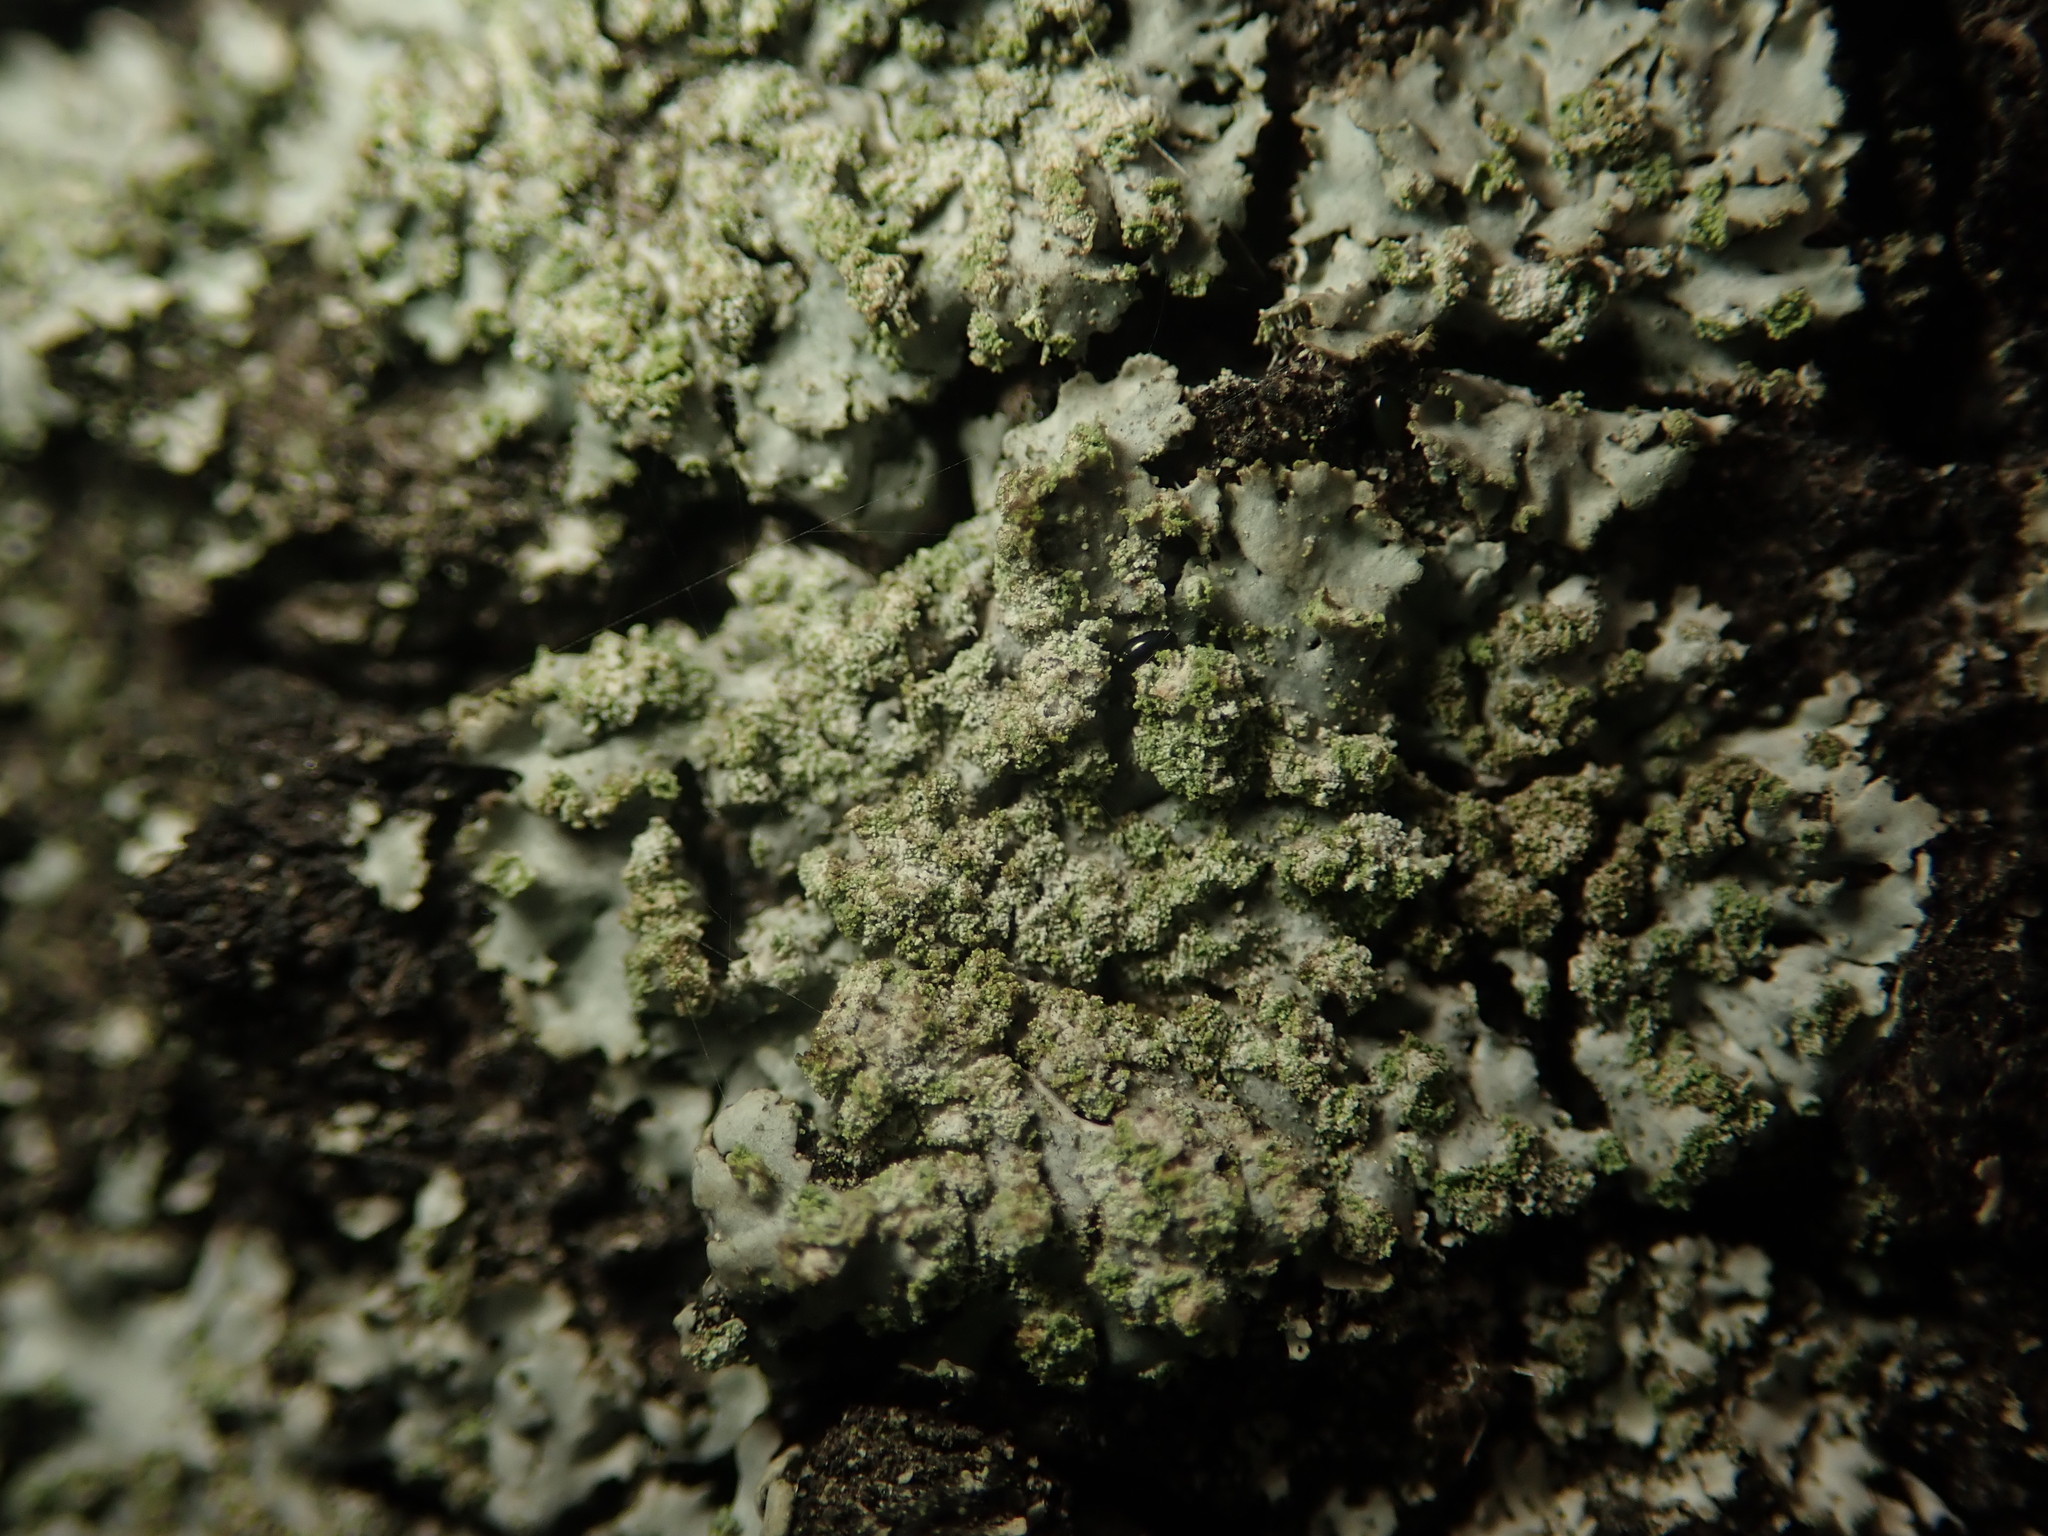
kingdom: Fungi
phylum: Ascomycota
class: Lecanoromycetes
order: Caliciales
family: Physciaceae
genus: Phaeophyscia
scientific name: Phaeophyscia orbicularis
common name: Mealy shadow lichen
